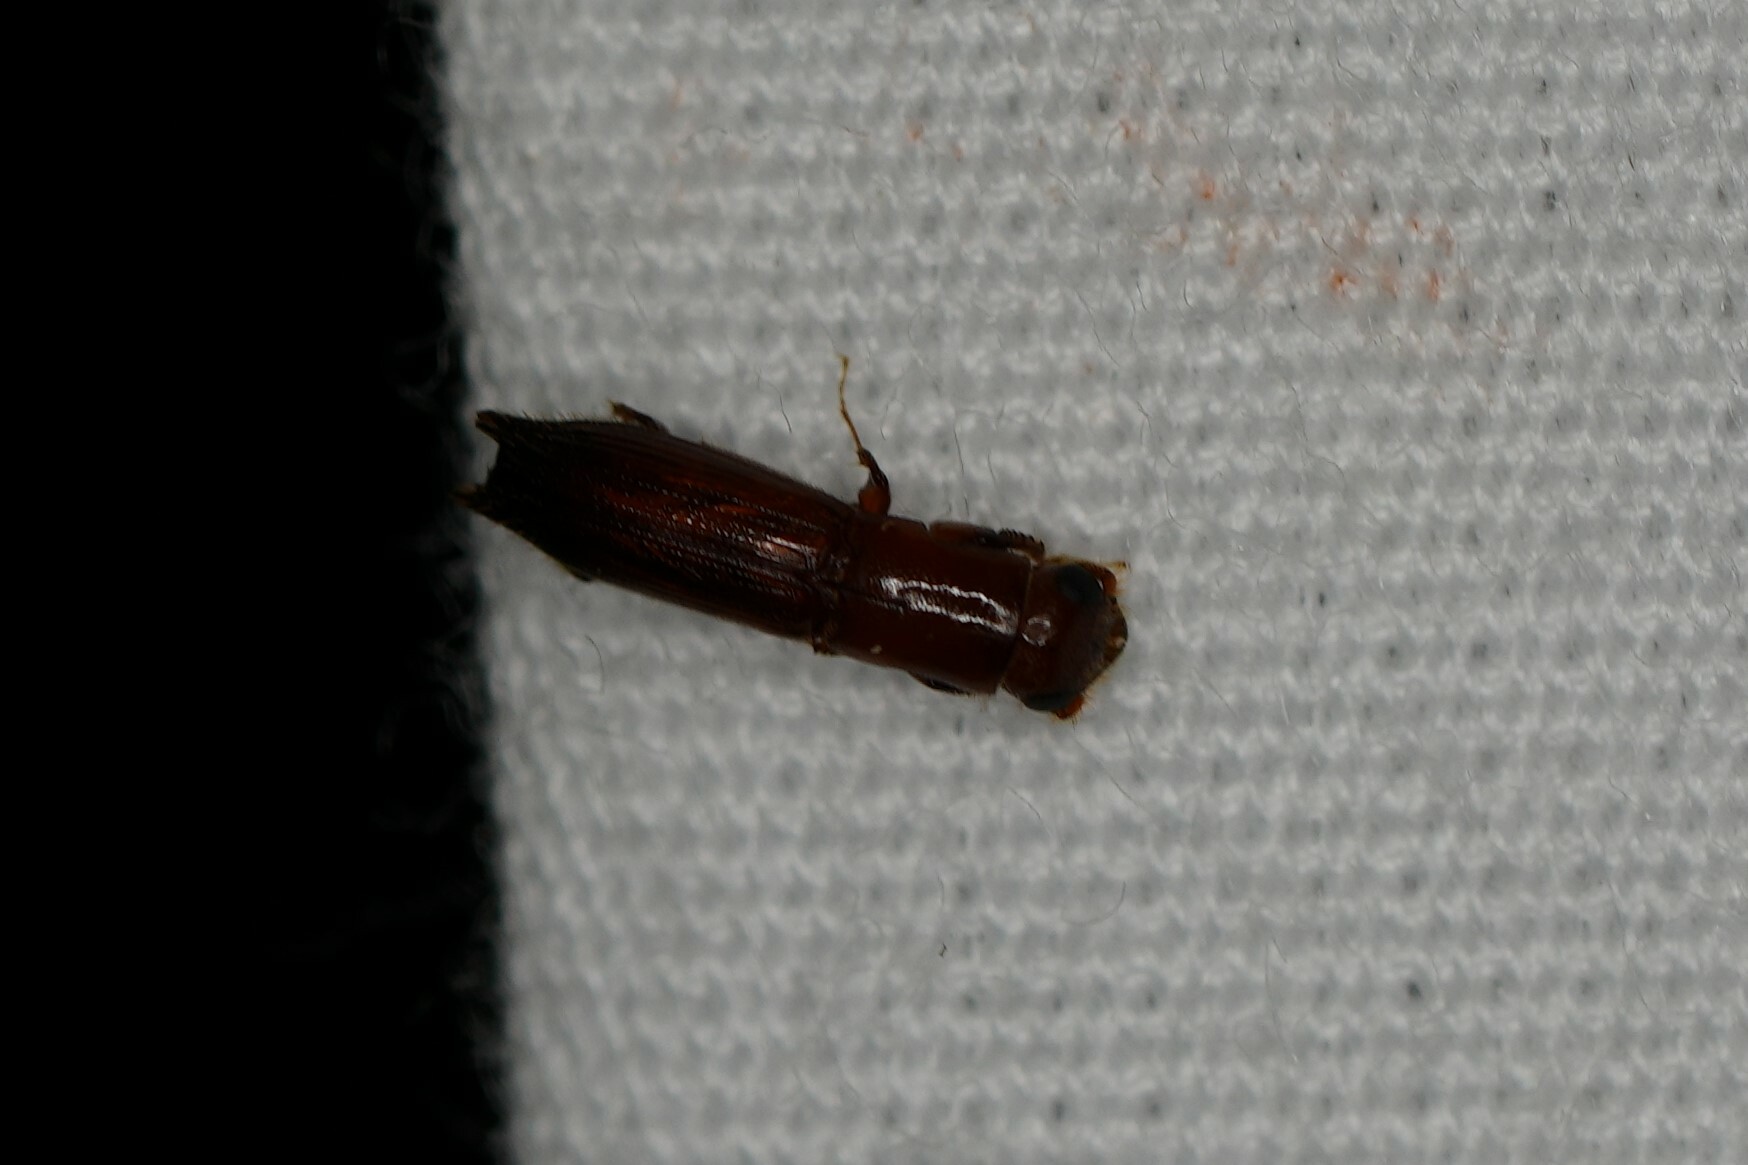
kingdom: Animalia
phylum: Arthropoda
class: Insecta
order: Coleoptera
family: Curculionidae
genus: Euplatypus
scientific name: Euplatypus compositus
